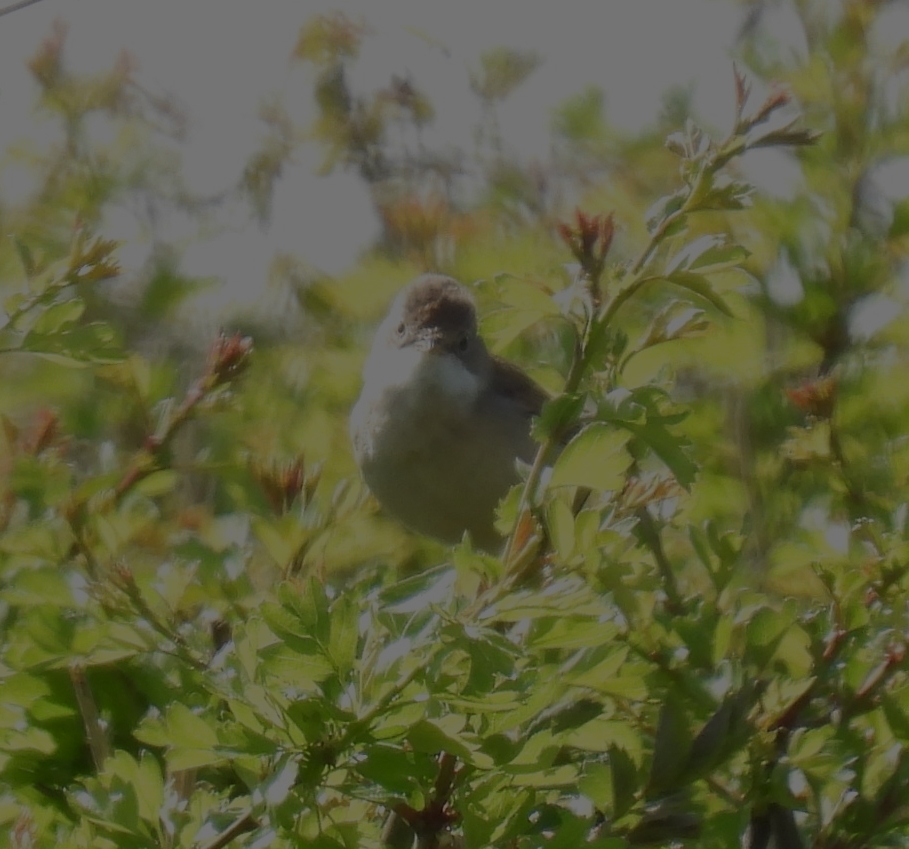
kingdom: Animalia
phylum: Chordata
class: Aves
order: Passeriformes
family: Sylviidae
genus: Sylvia
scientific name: Sylvia communis
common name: Common whitethroat
